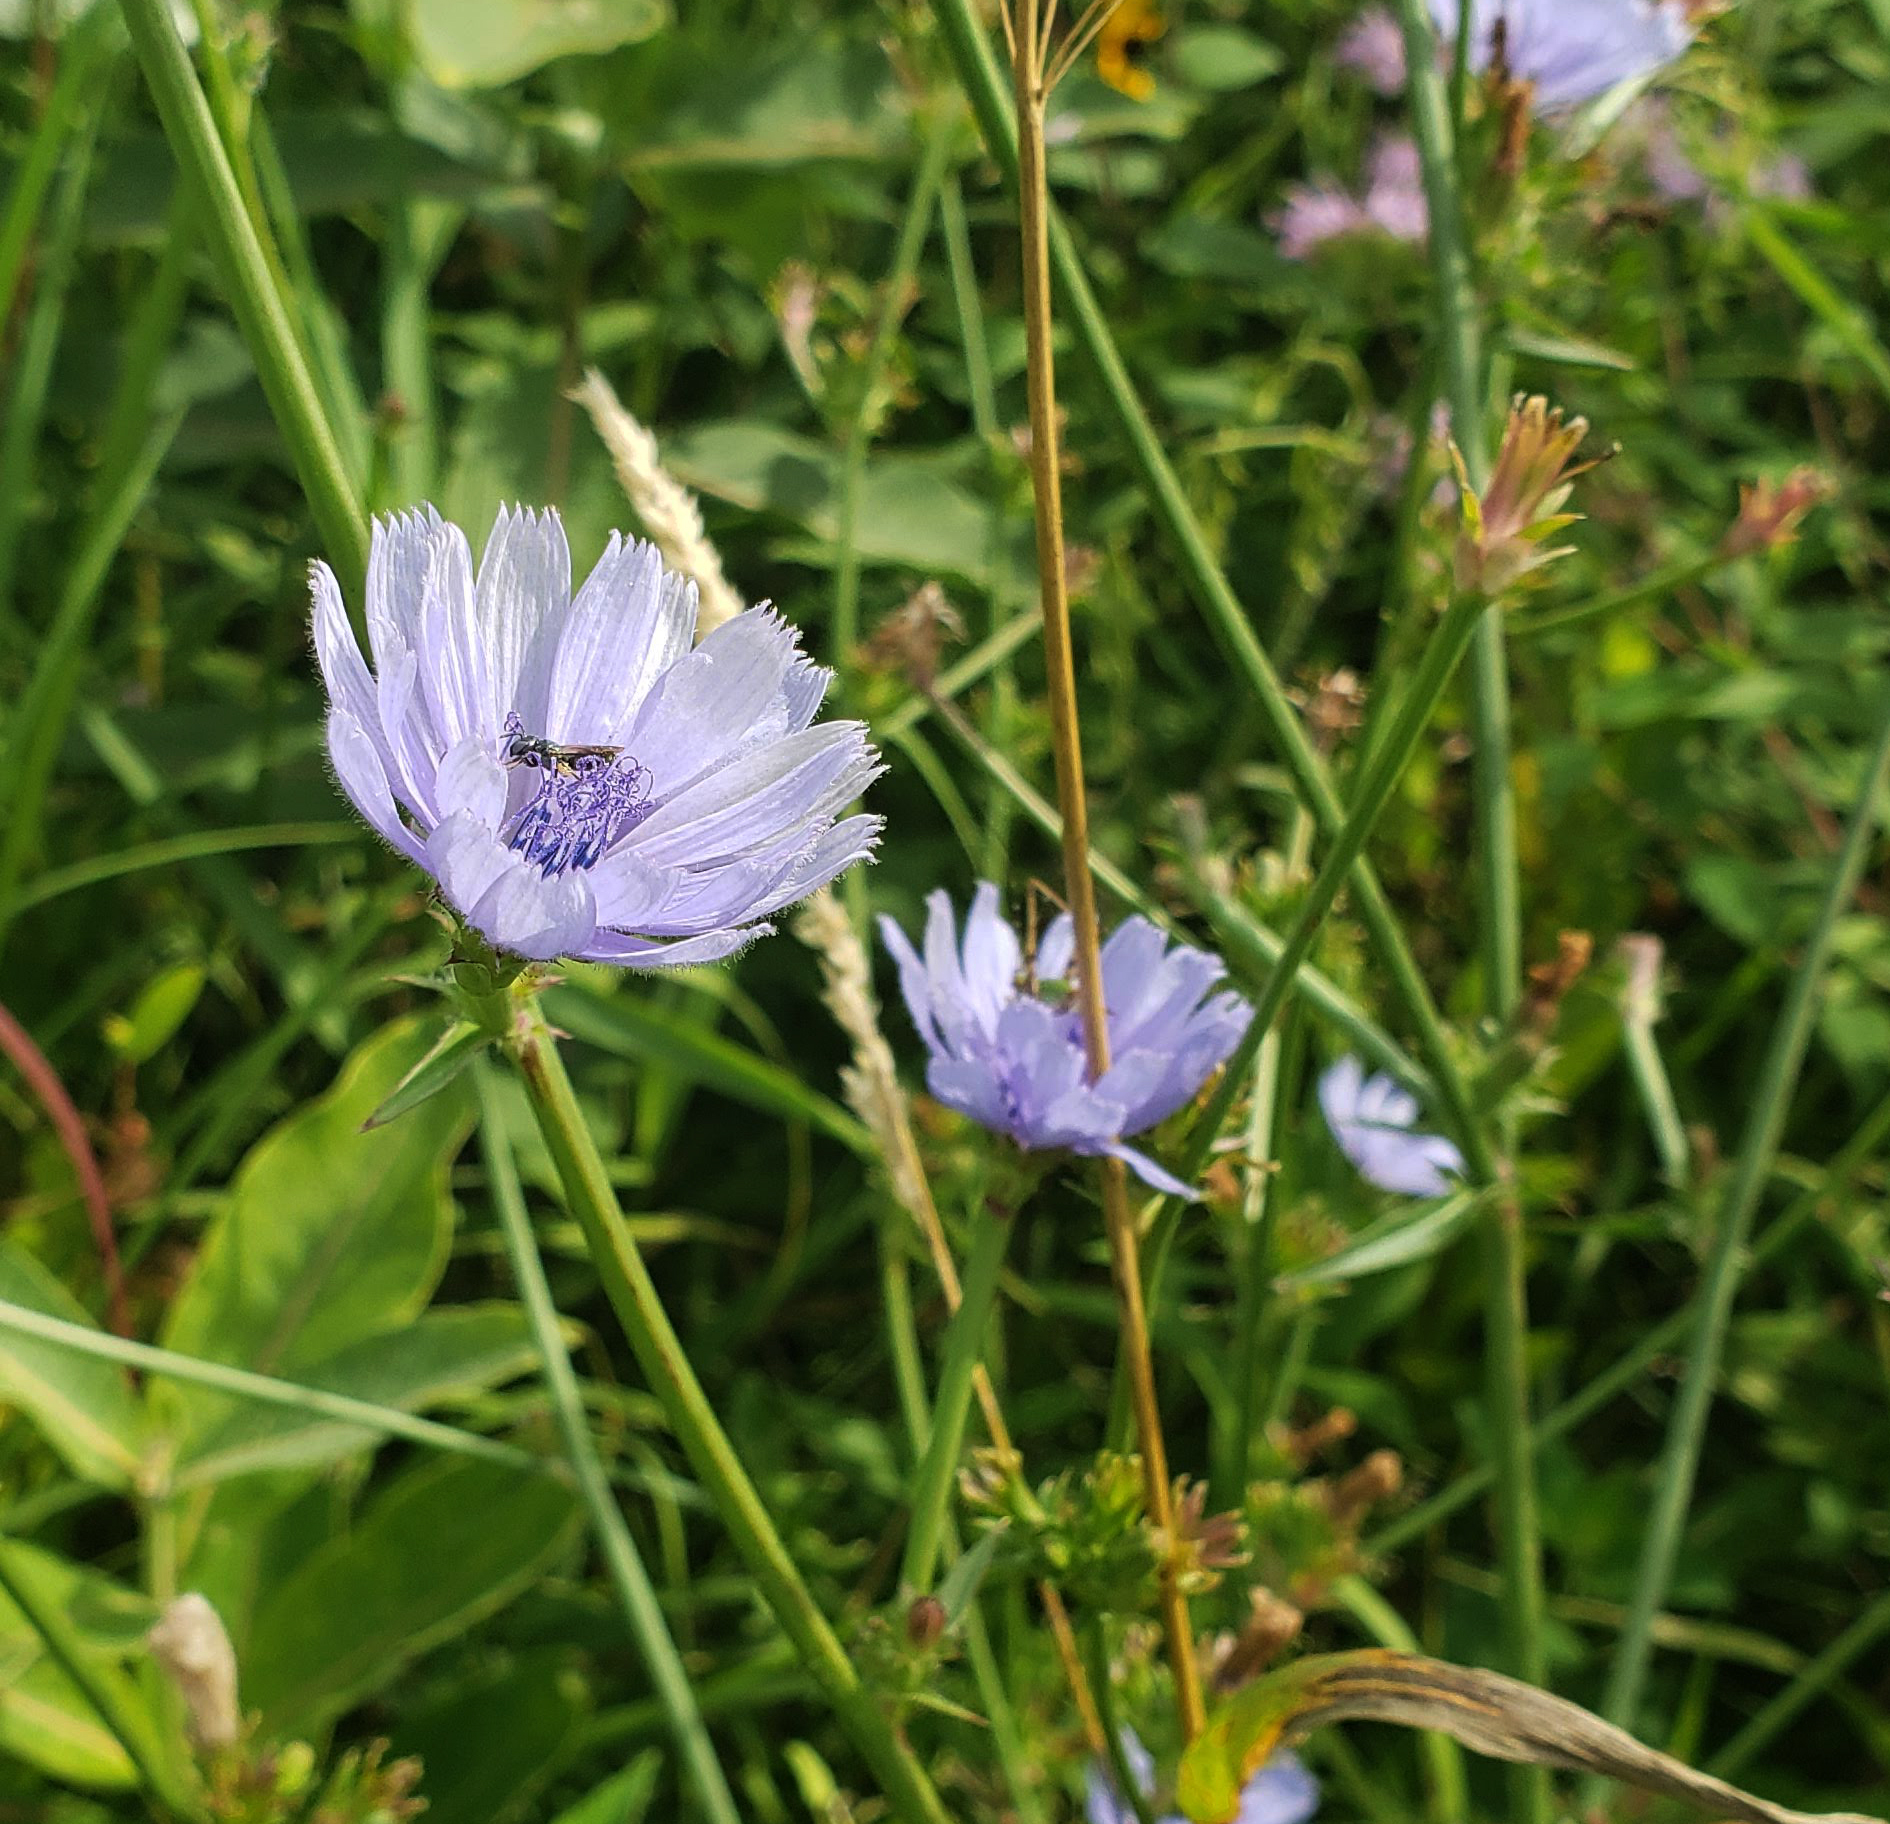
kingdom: Plantae
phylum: Tracheophyta
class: Magnoliopsida
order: Asterales
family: Asteraceae
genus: Cichorium
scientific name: Cichorium intybus
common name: Chicory
